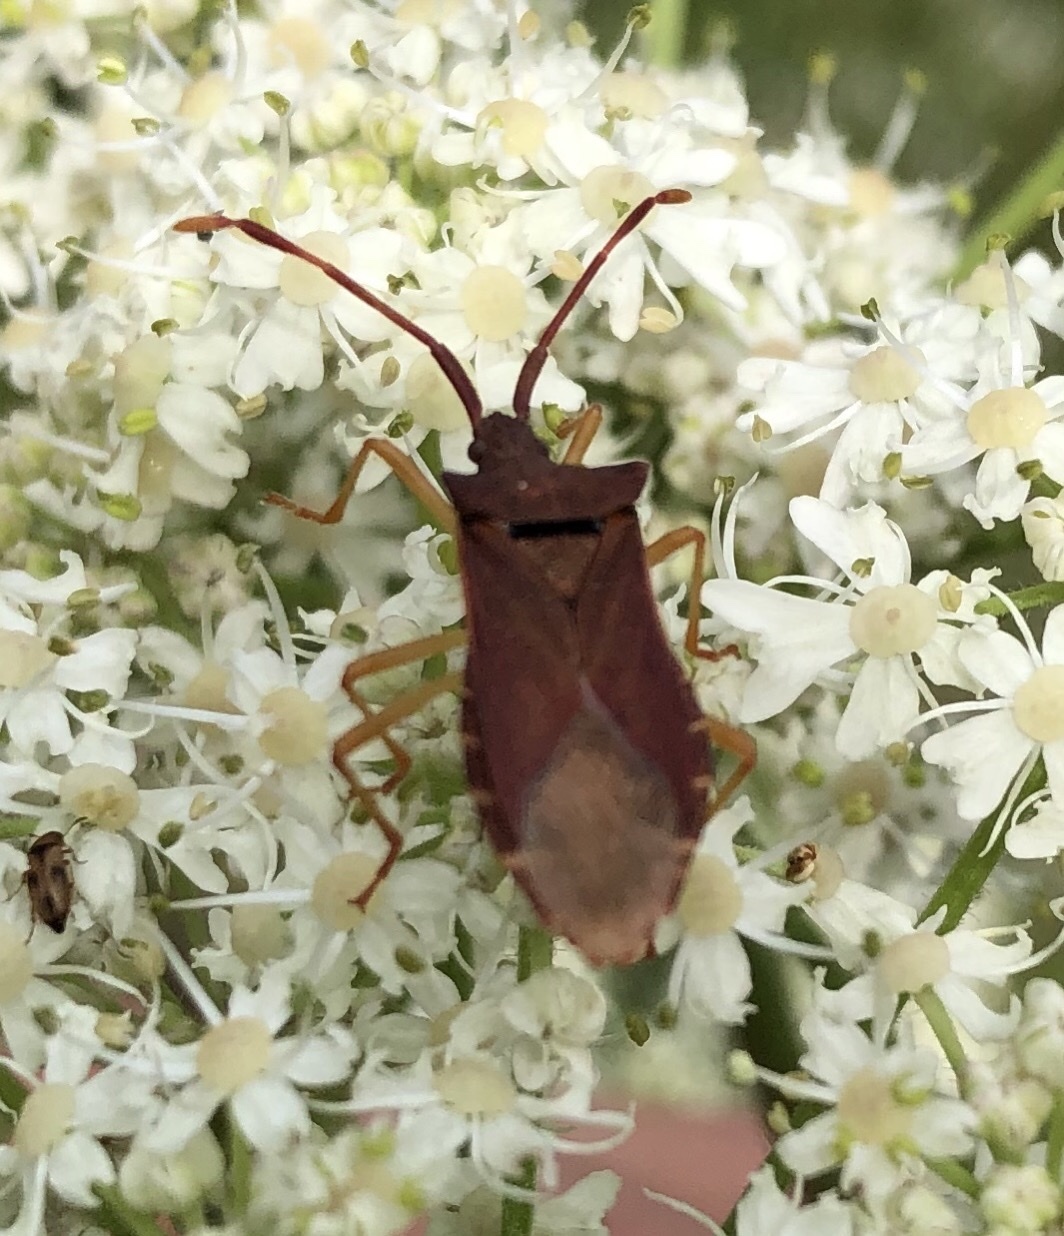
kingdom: Animalia
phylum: Arthropoda
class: Insecta
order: Hemiptera
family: Coreidae
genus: Gonocerus
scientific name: Gonocerus acuteangulatus
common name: Box bug
